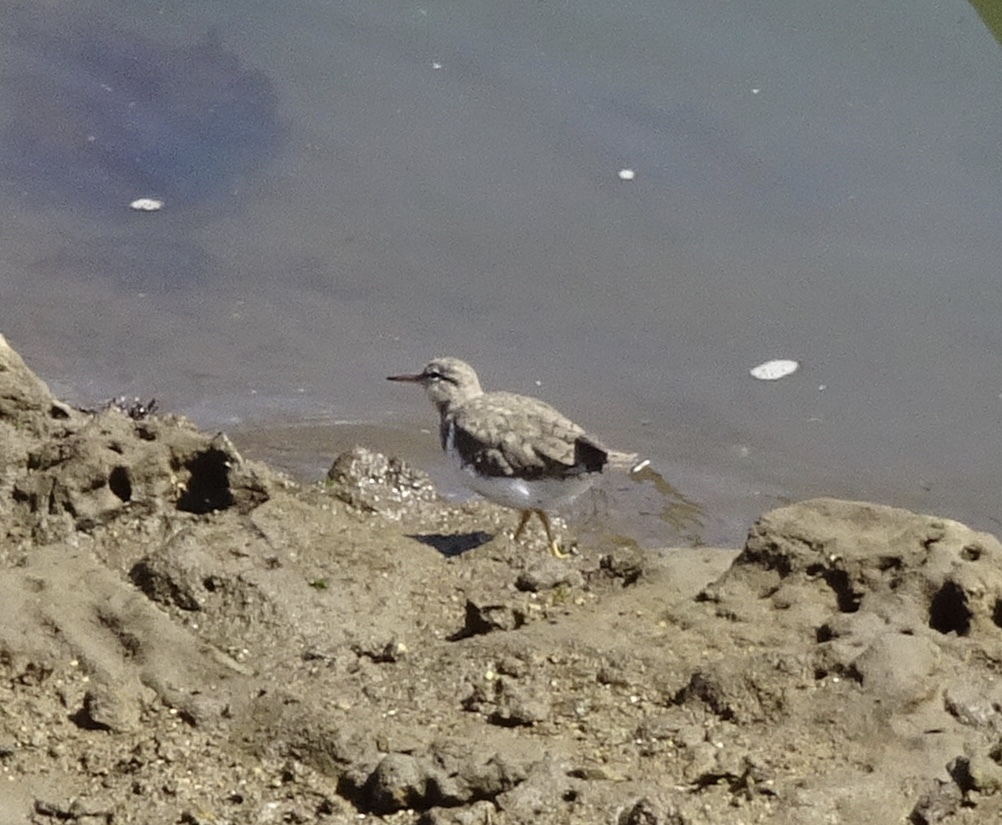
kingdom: Animalia
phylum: Chordata
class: Aves
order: Charadriiformes
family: Scolopacidae
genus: Actitis
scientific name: Actitis macularius
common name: Spotted sandpiper
